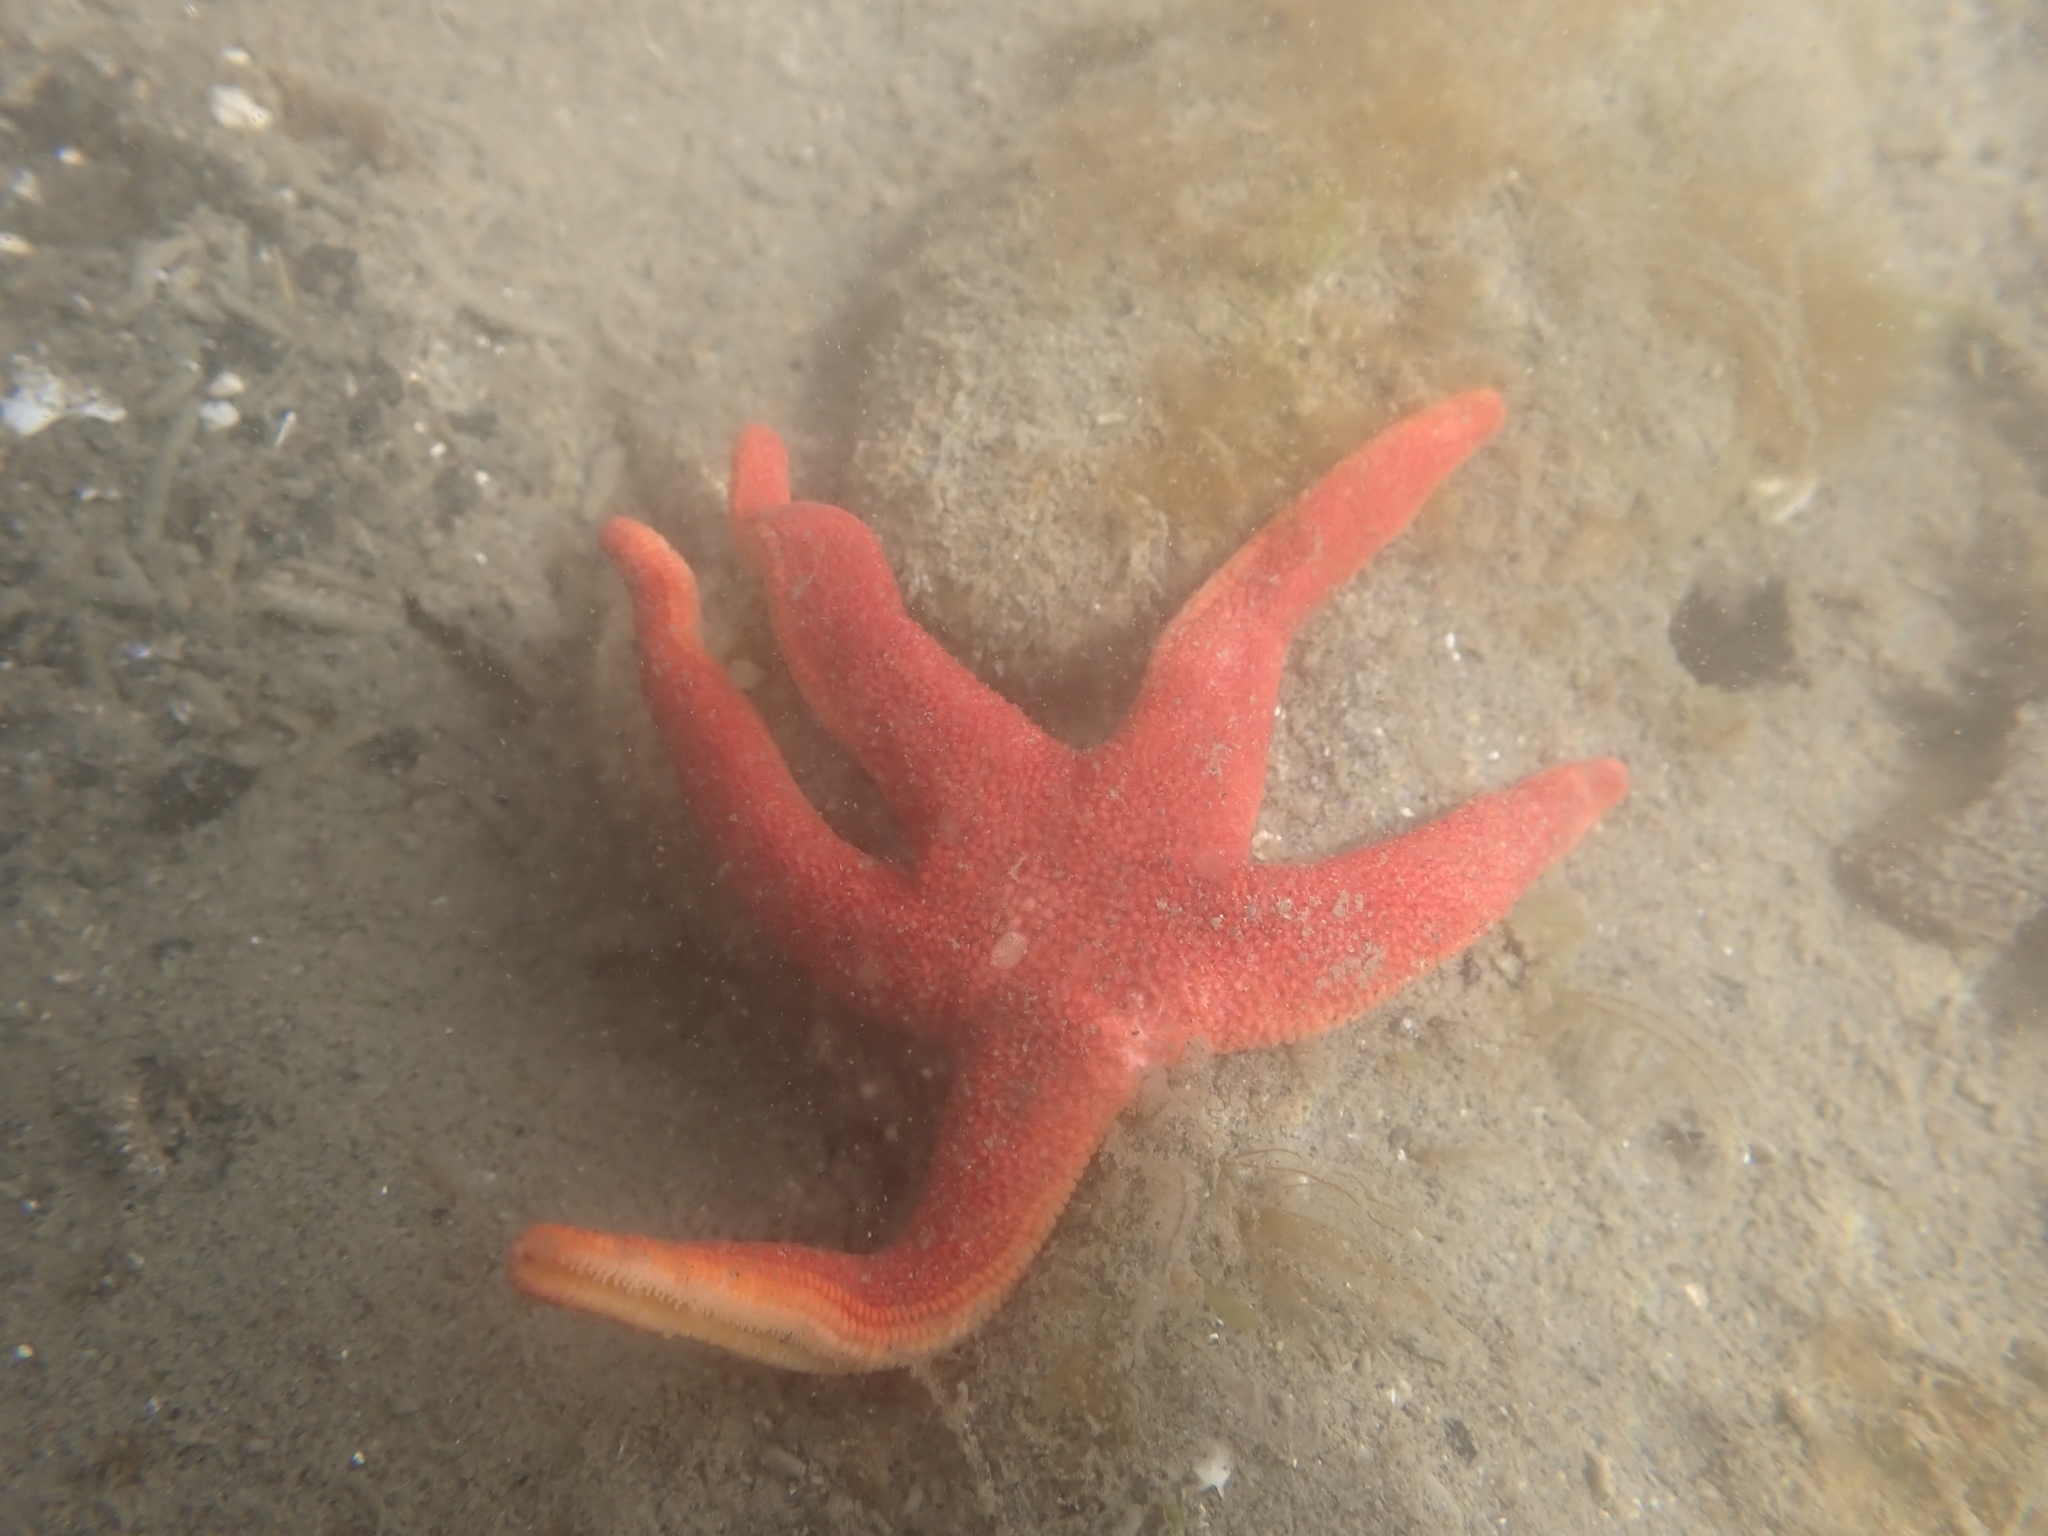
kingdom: Animalia
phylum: Echinodermata
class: Asteroidea
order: Spinulosida
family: Echinasteridae
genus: Henricia
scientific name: Henricia leviuscula
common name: Pacific blood star
